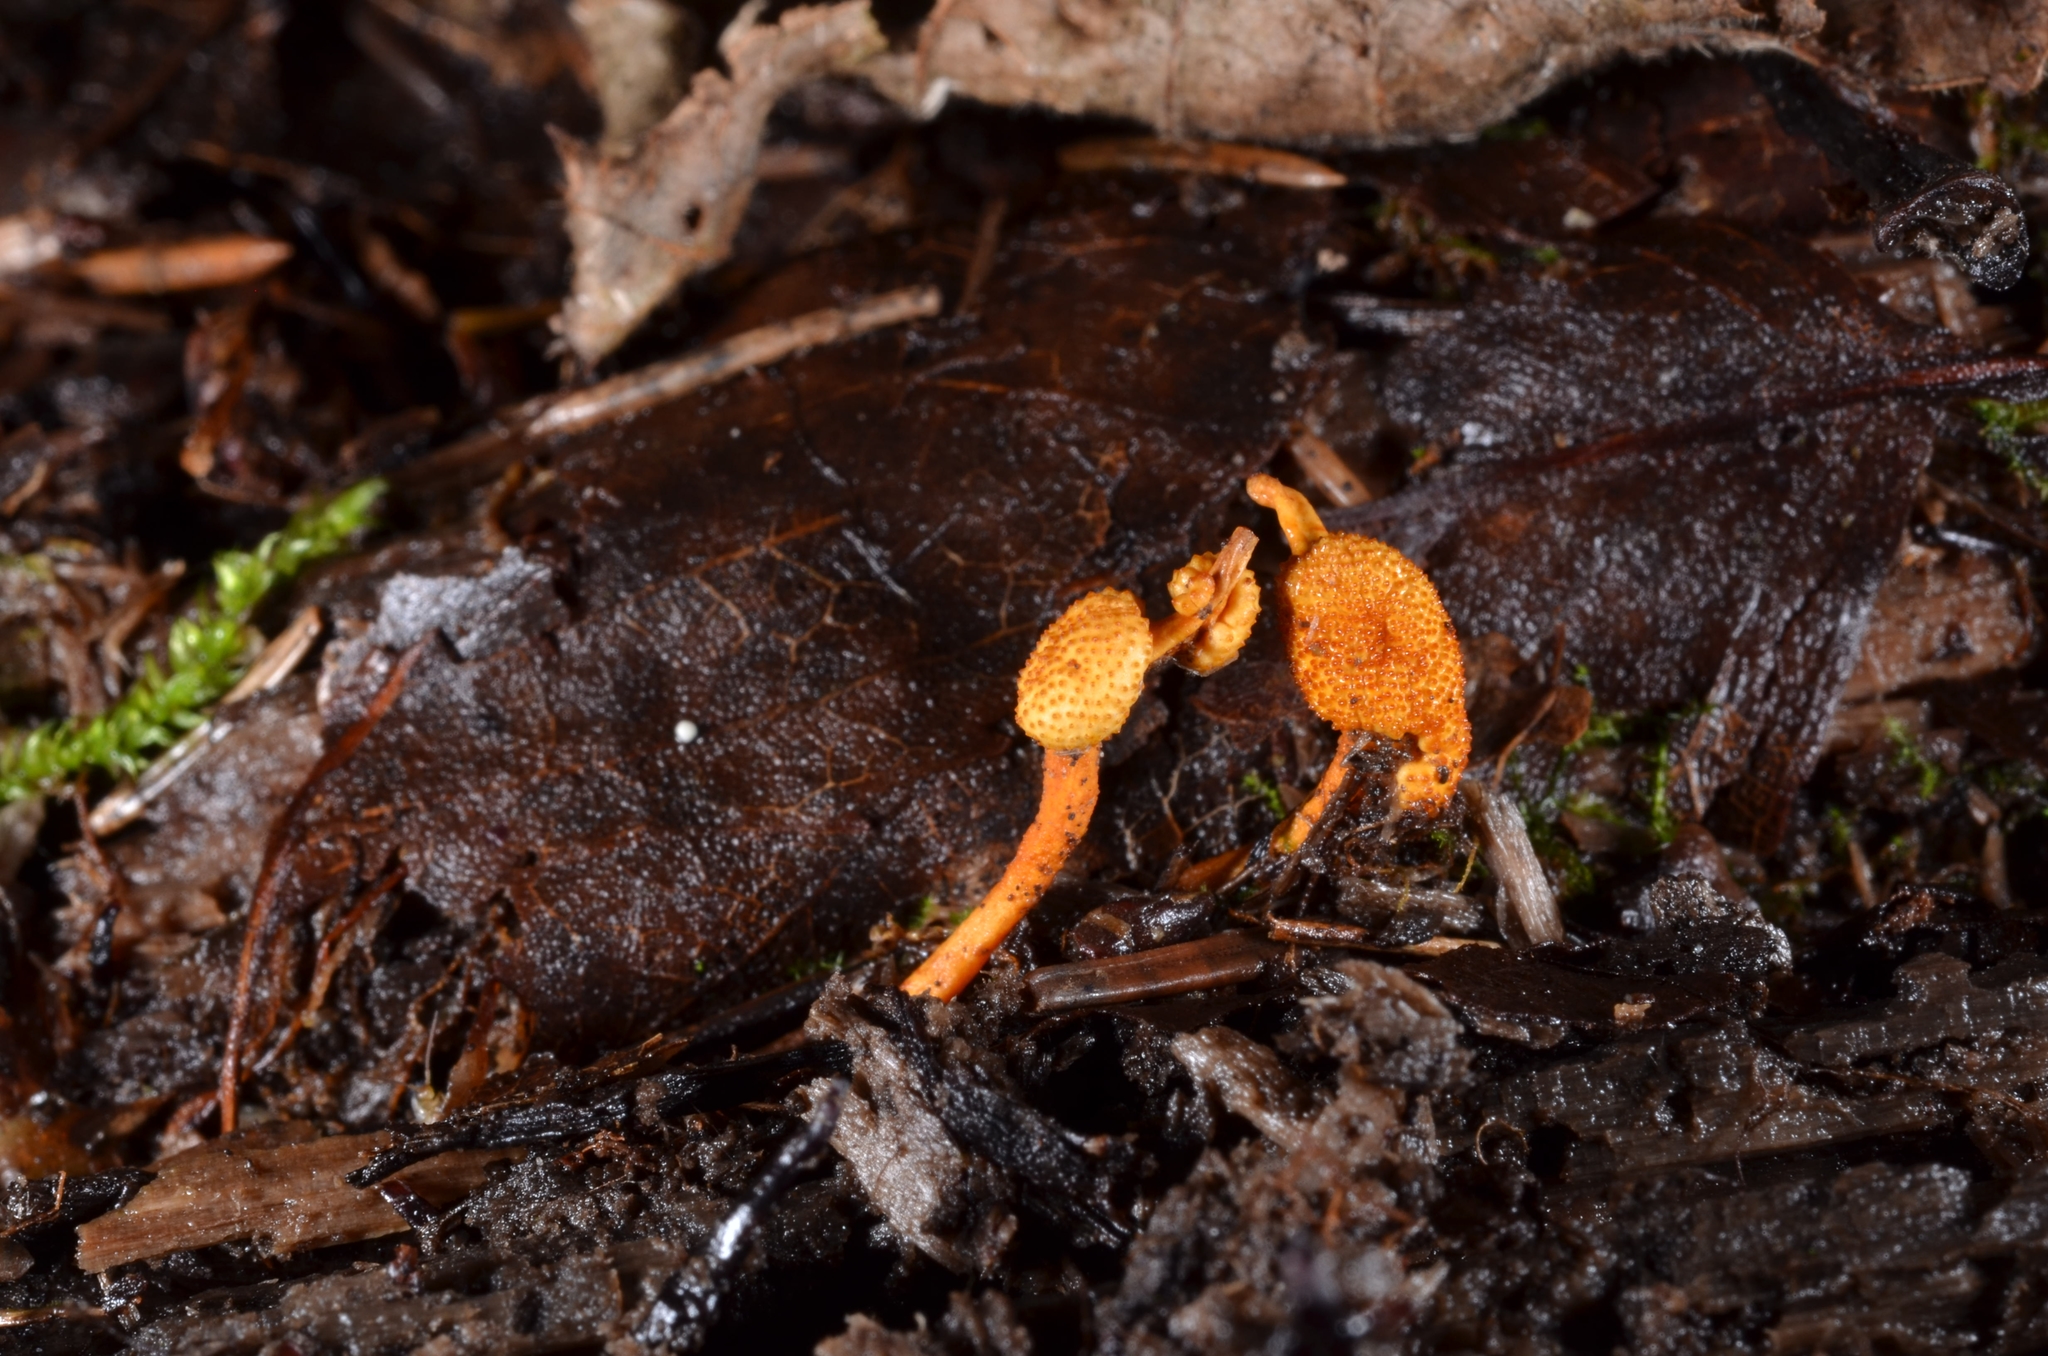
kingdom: Fungi
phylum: Ascomycota
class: Sordariomycetes
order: Hypocreales
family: Ophiocordycipitaceae
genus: Ophiocordyceps
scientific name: Ophiocordyceps variabilis
